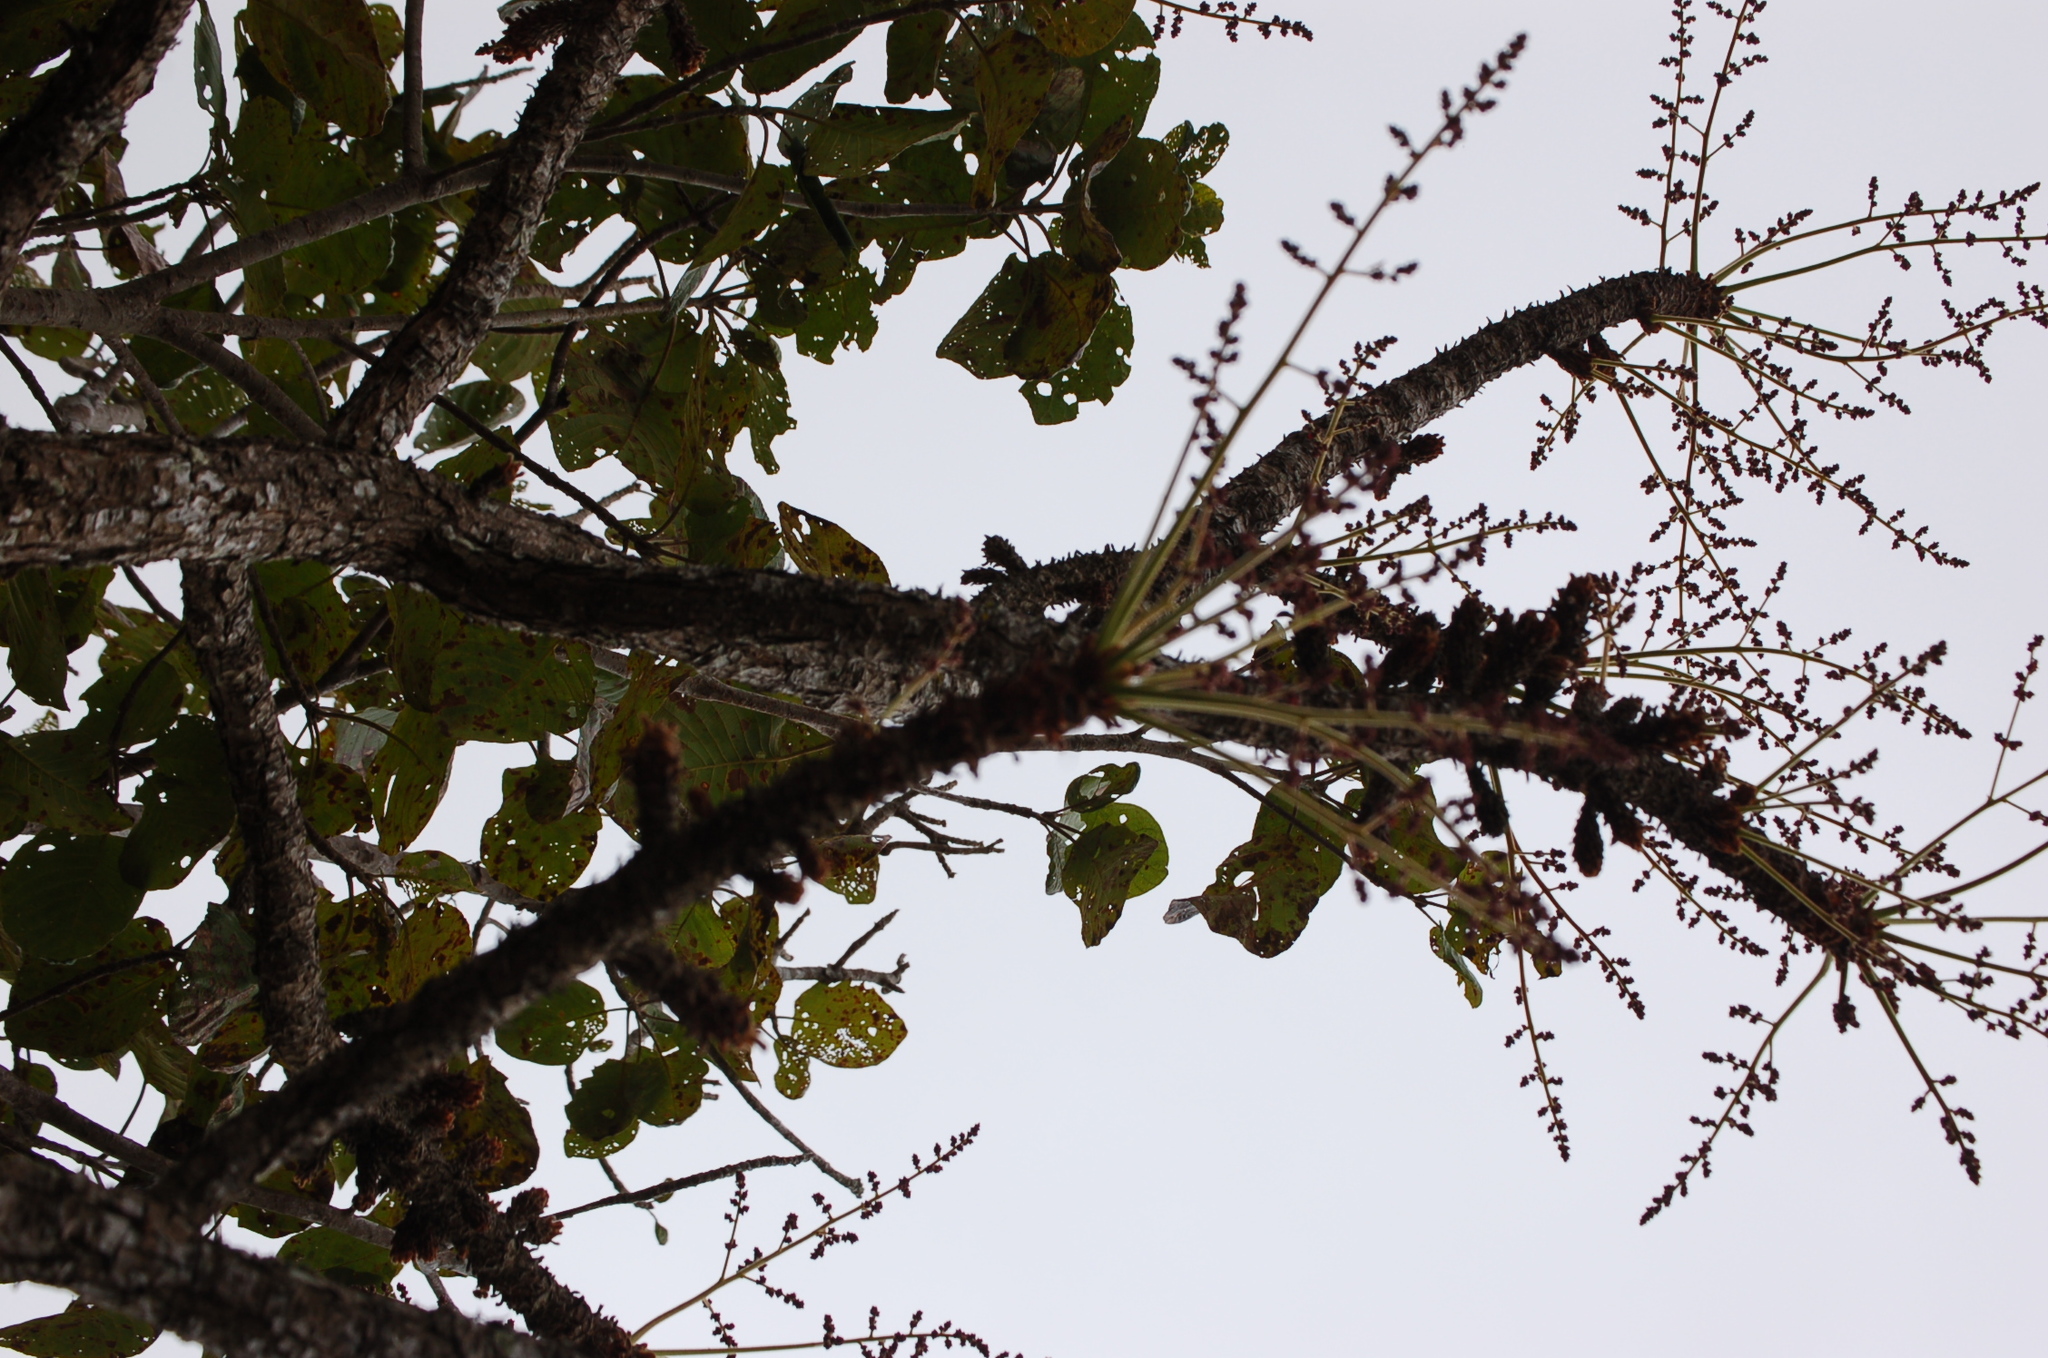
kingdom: Plantae
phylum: Tracheophyta
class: Magnoliopsida
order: Sapindales
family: Anacardiaceae
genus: Comocladia
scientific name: Comocladia guatemalensis
